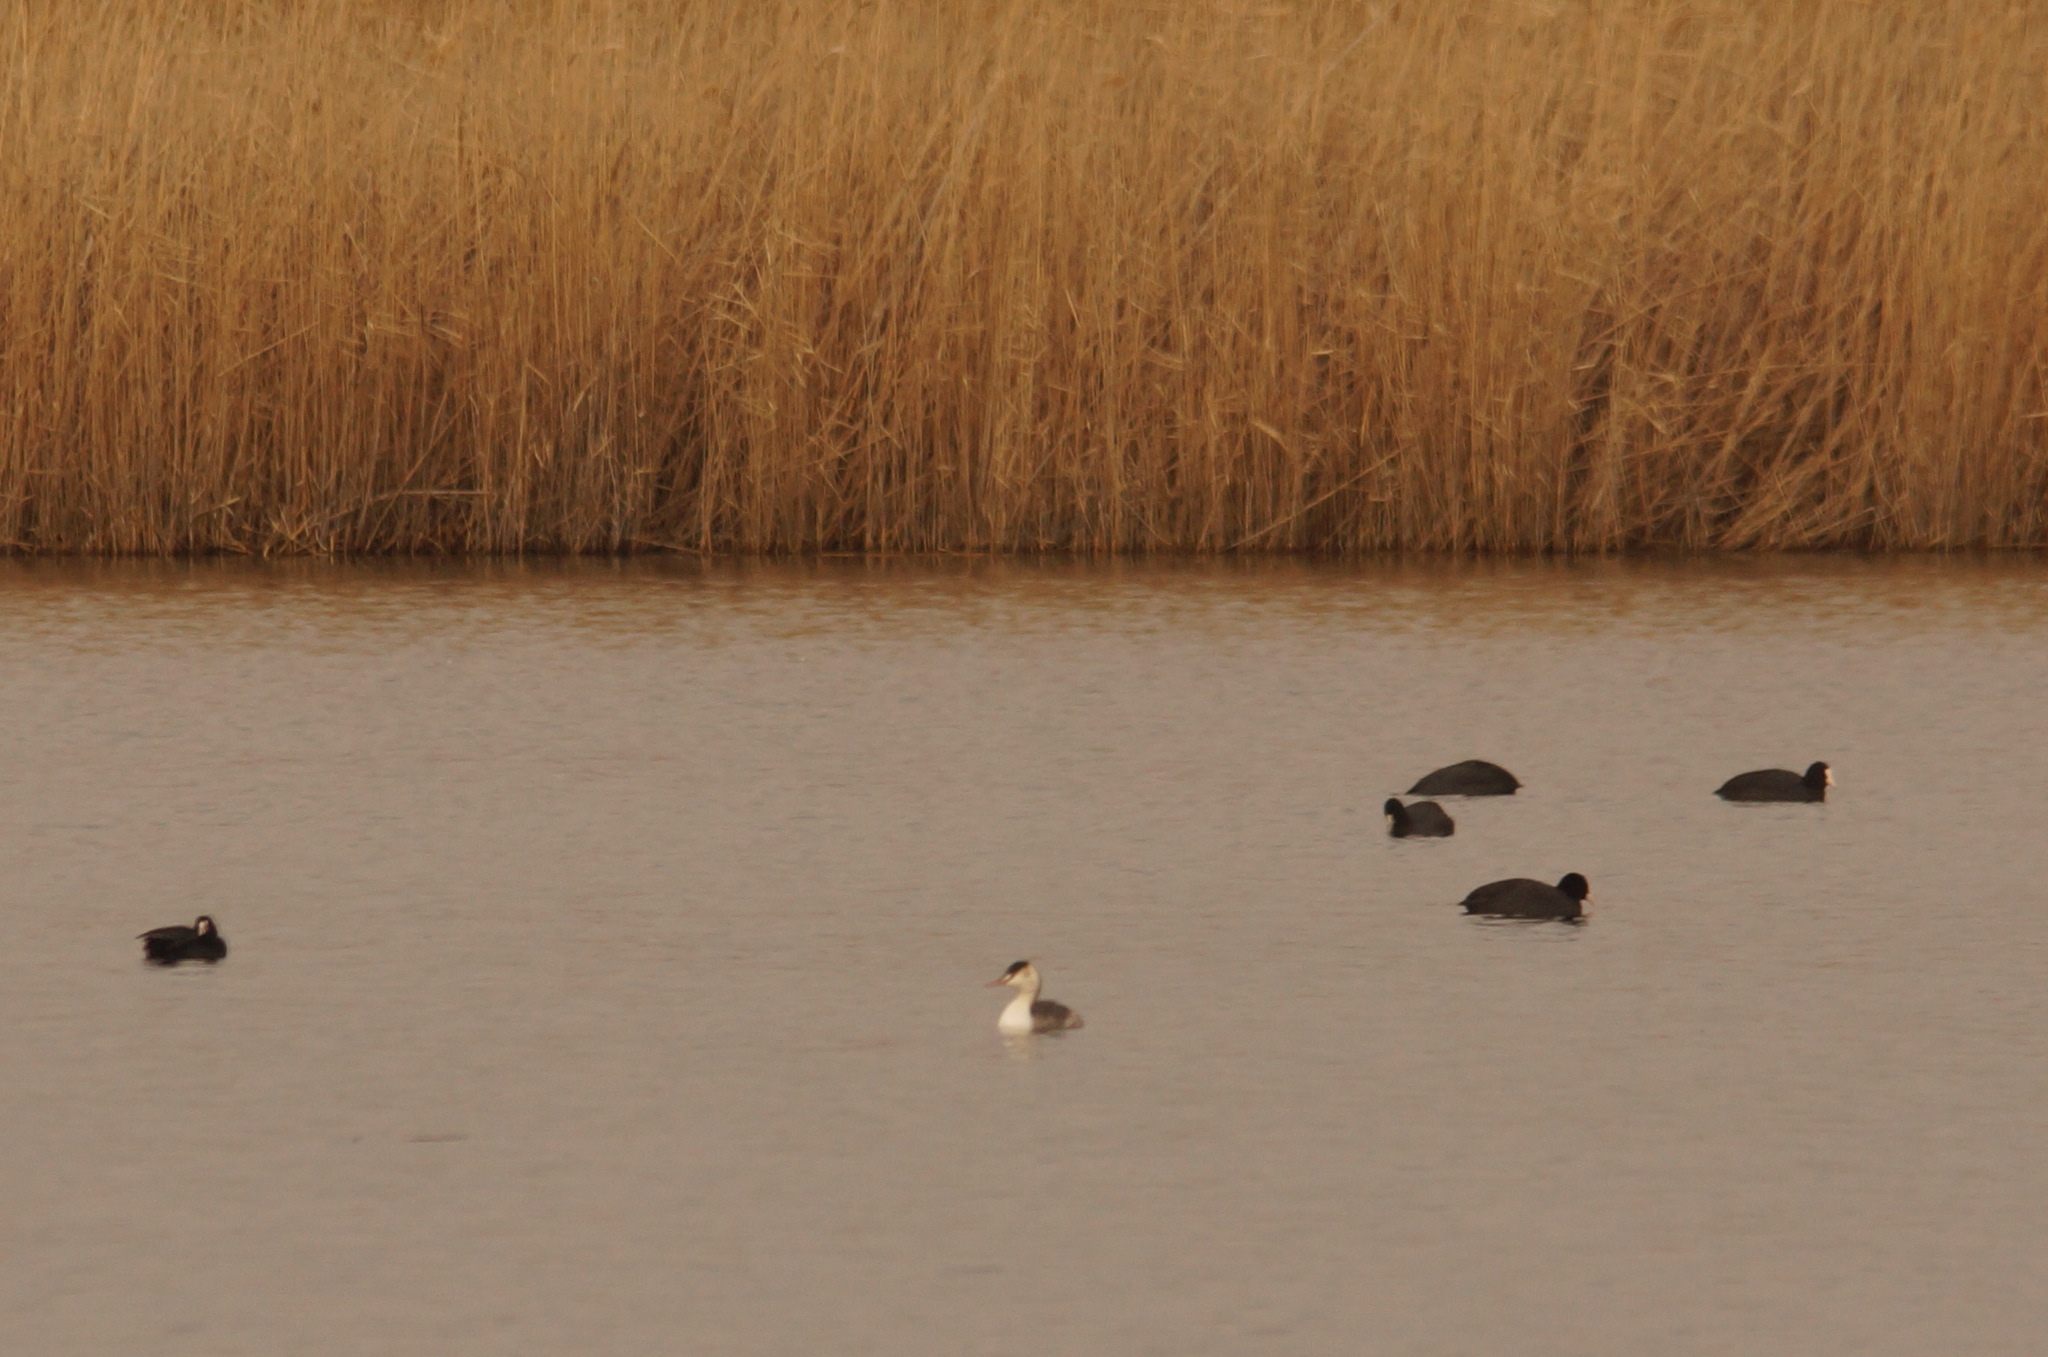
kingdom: Animalia
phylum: Chordata
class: Aves
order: Podicipediformes
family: Podicipedidae
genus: Podiceps
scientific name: Podiceps cristatus
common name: Great crested grebe
